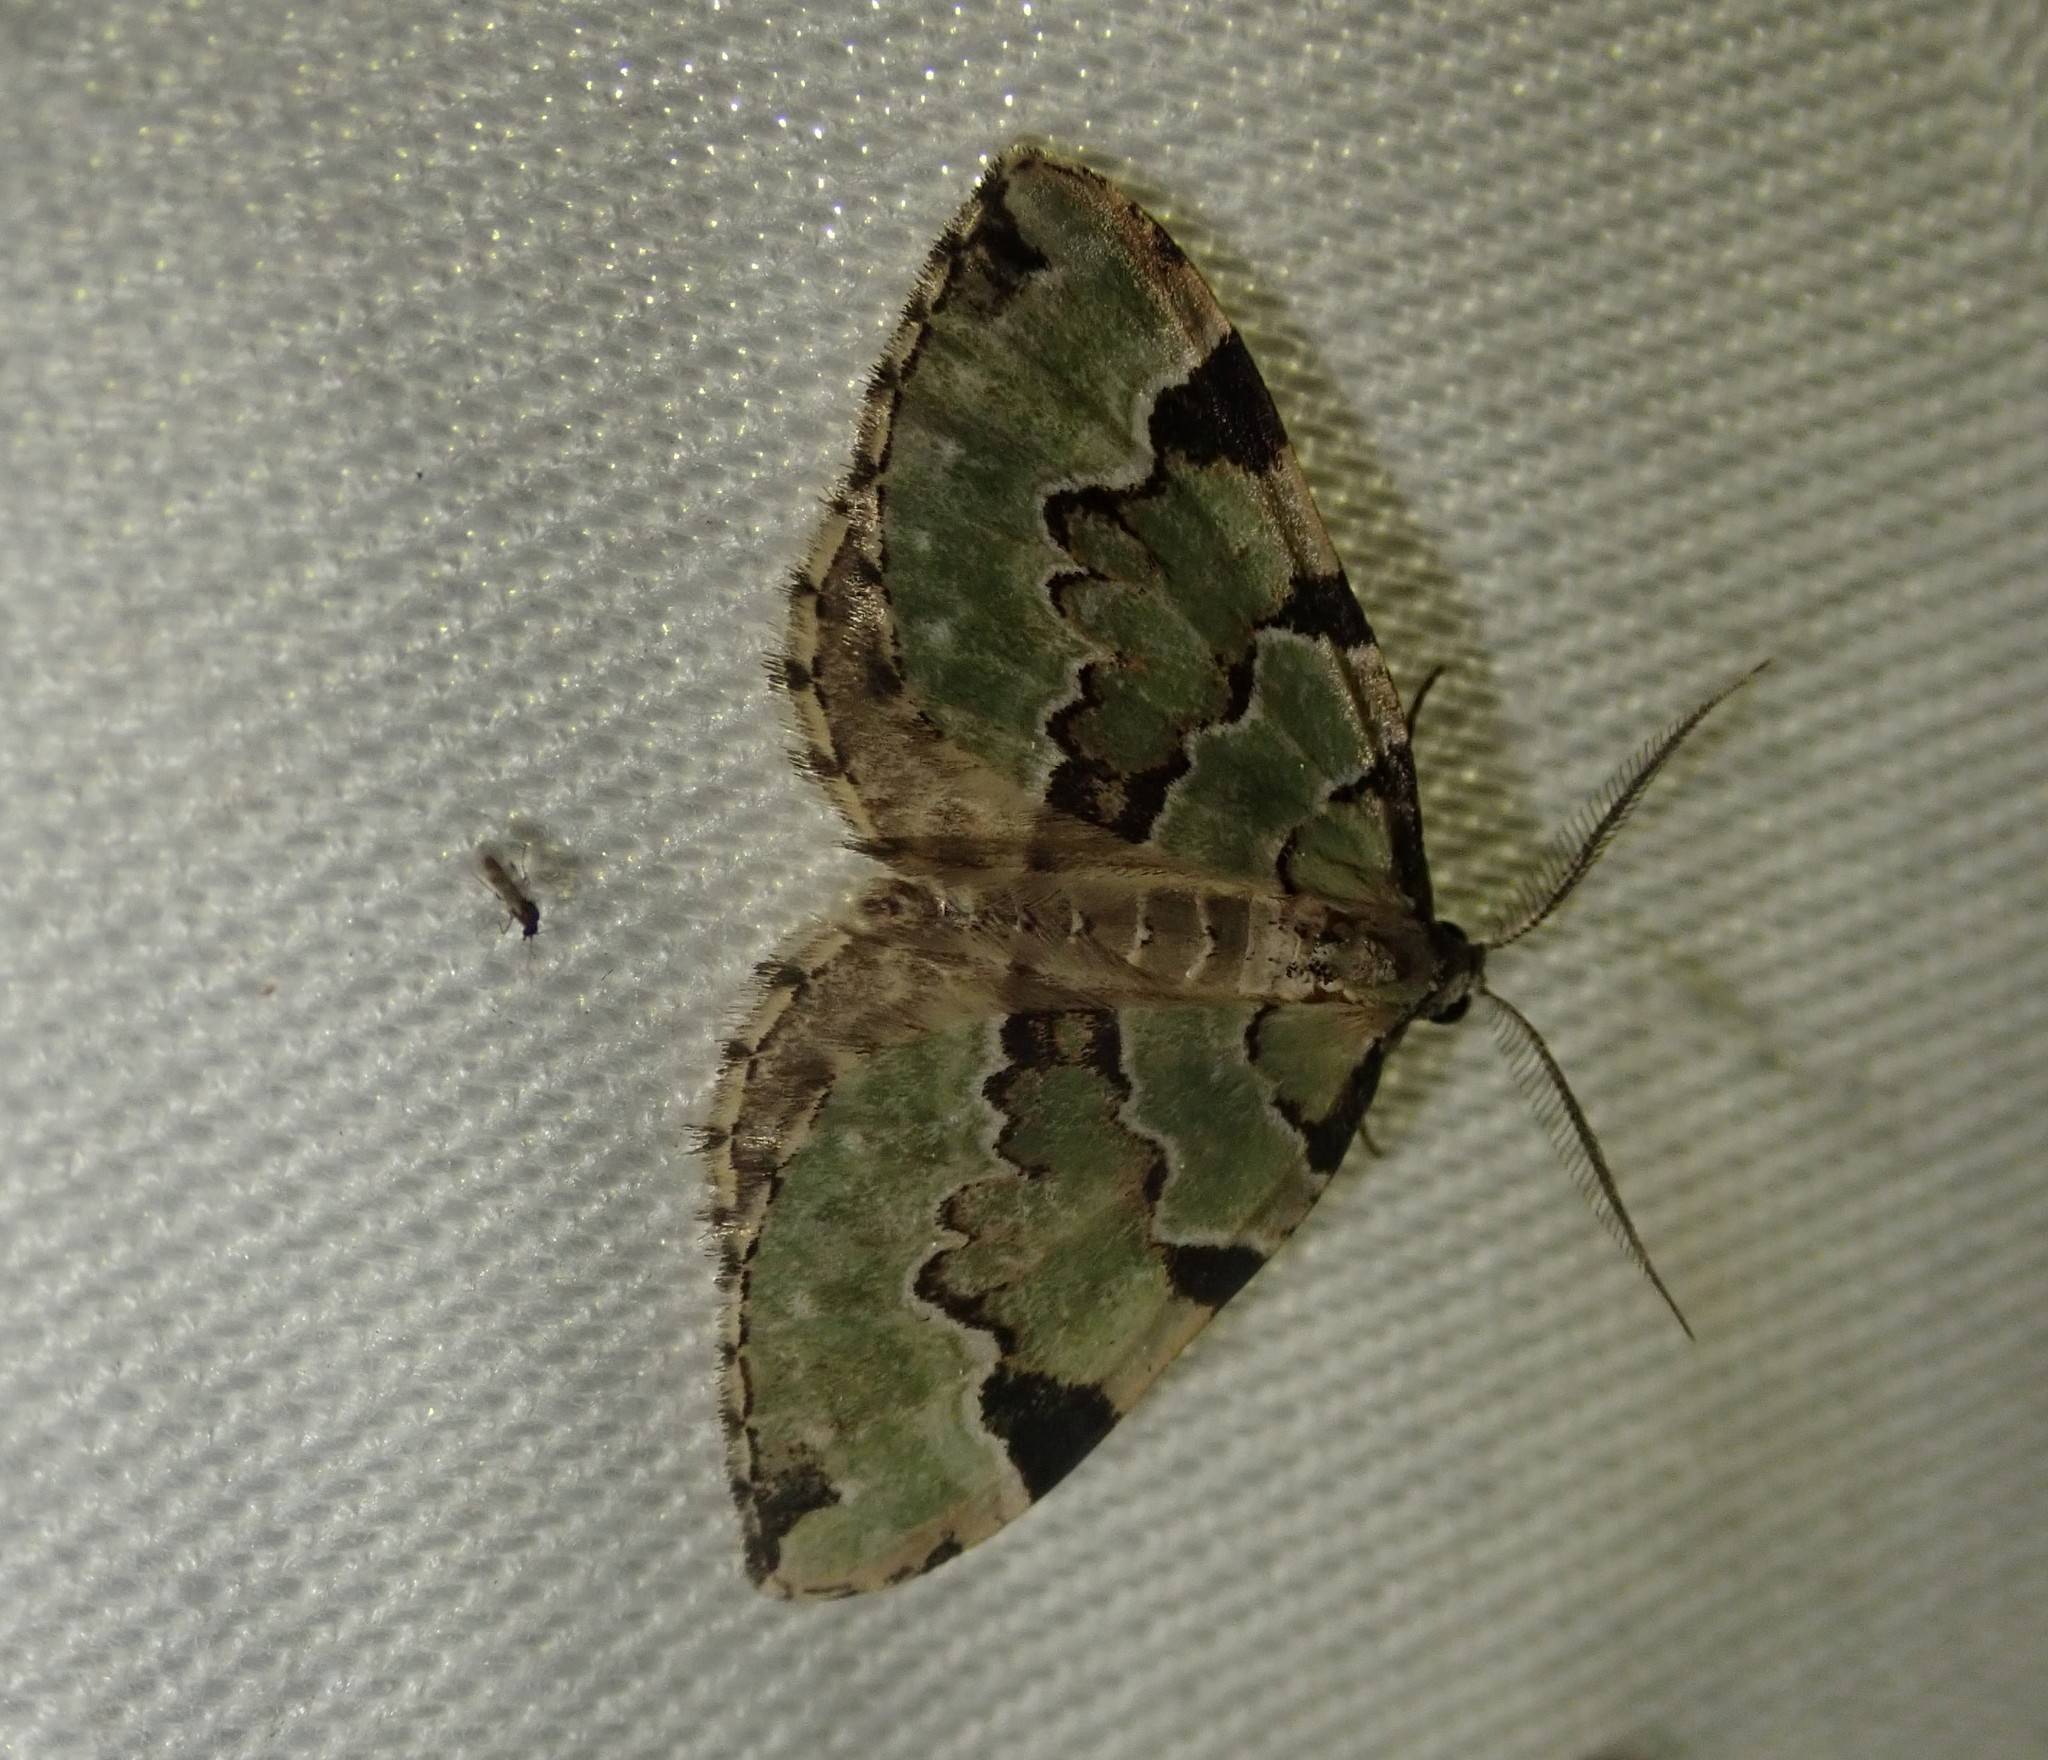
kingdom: Animalia
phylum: Arthropoda
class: Insecta
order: Lepidoptera
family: Geometridae
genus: Colostygia
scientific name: Colostygia pectinataria
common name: Green carpet
